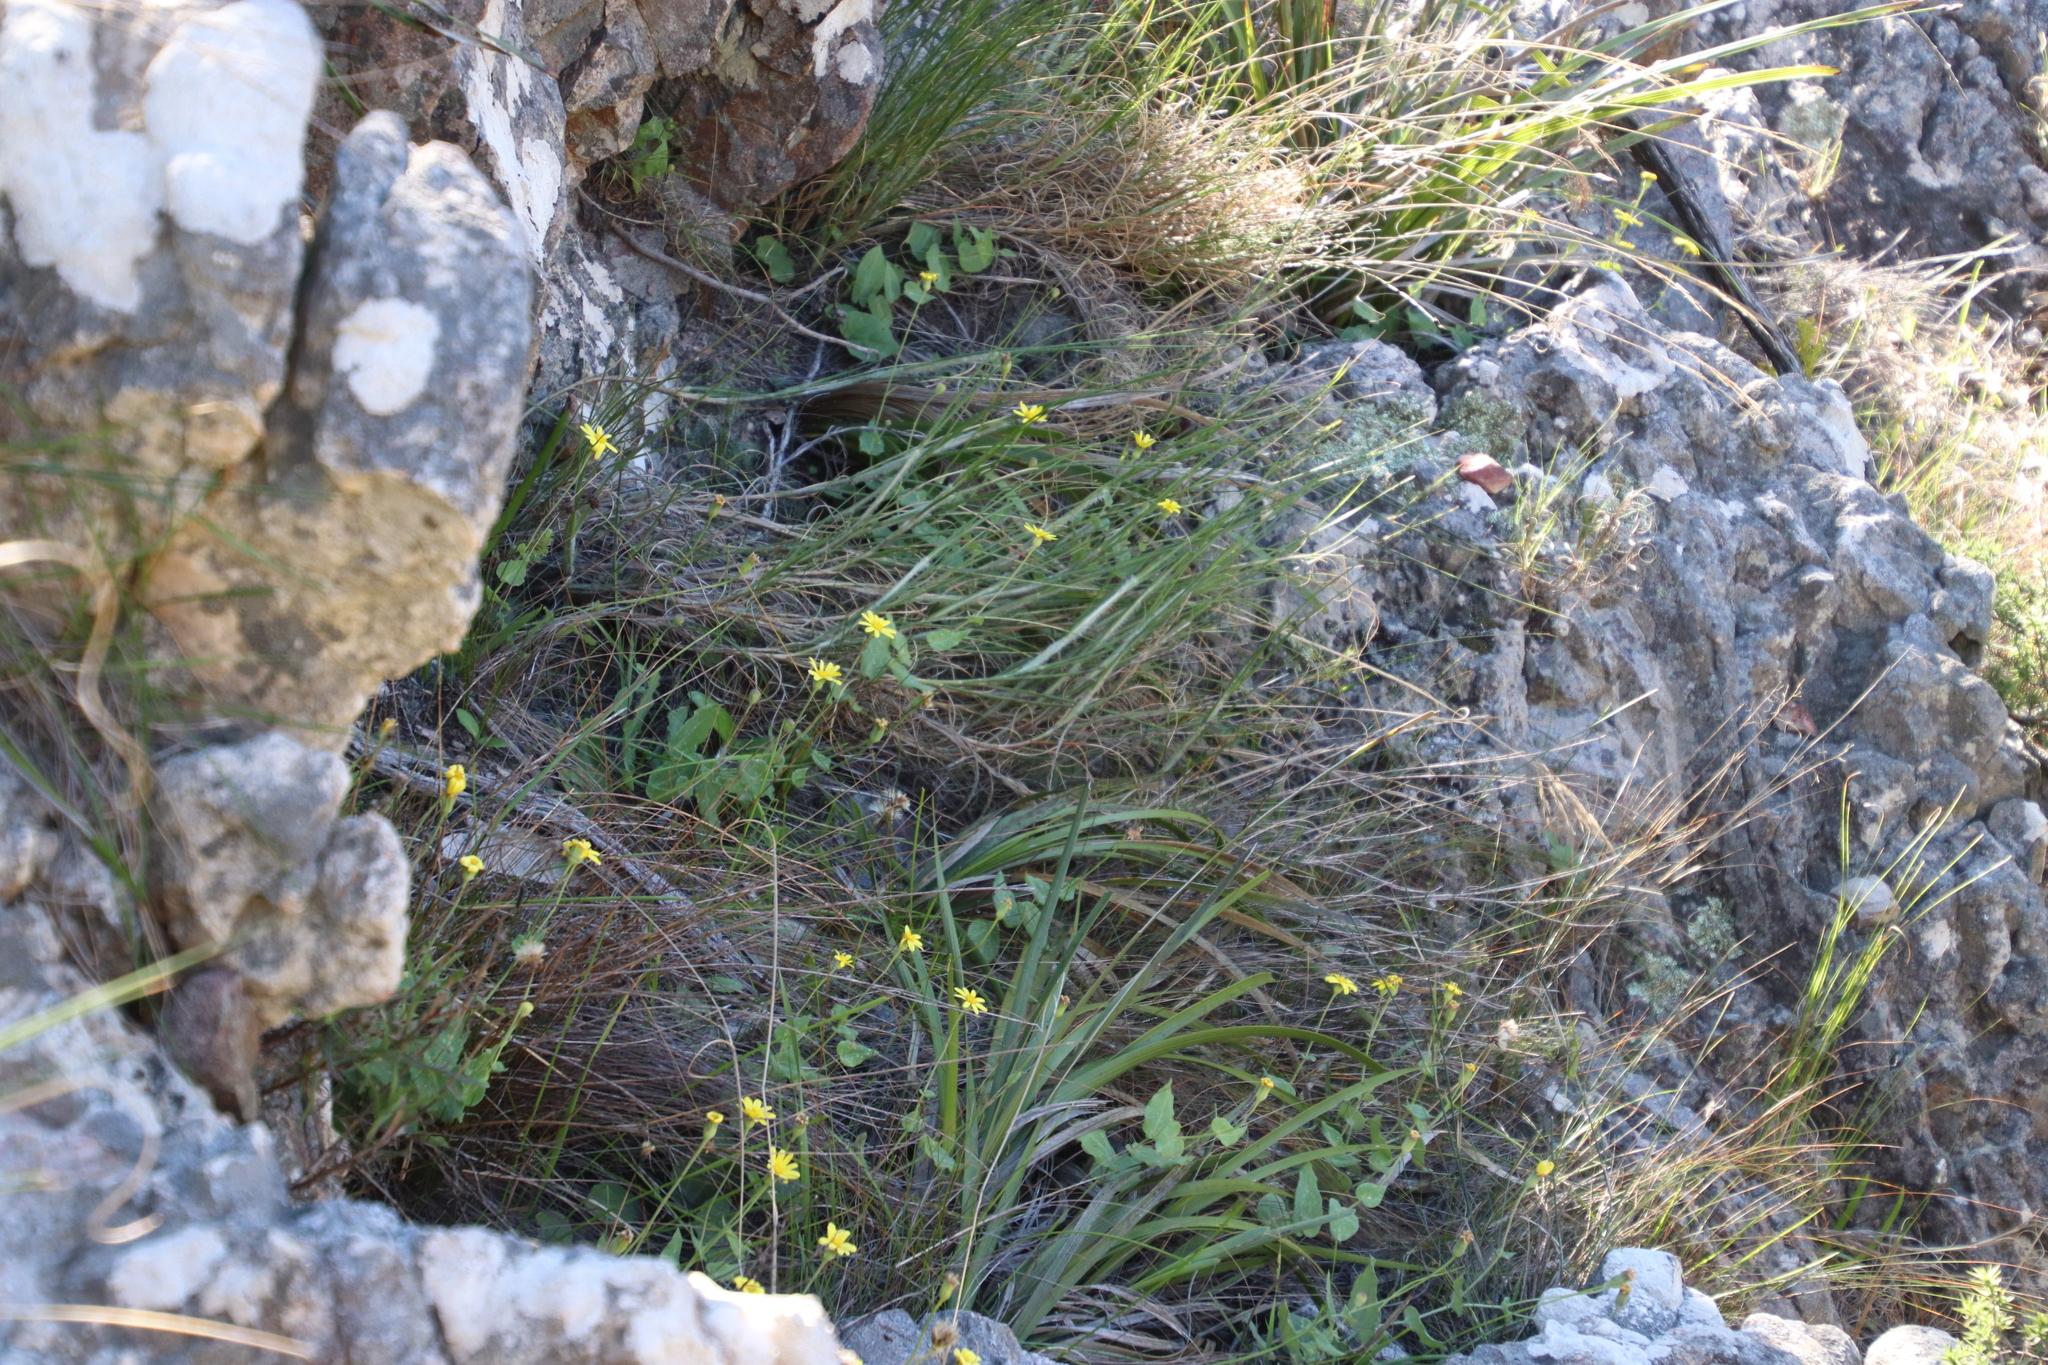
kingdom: Plantae
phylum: Tracheophyta
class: Magnoliopsida
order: Asterales
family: Asteraceae
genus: Othonna
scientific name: Othonna perfoliata
